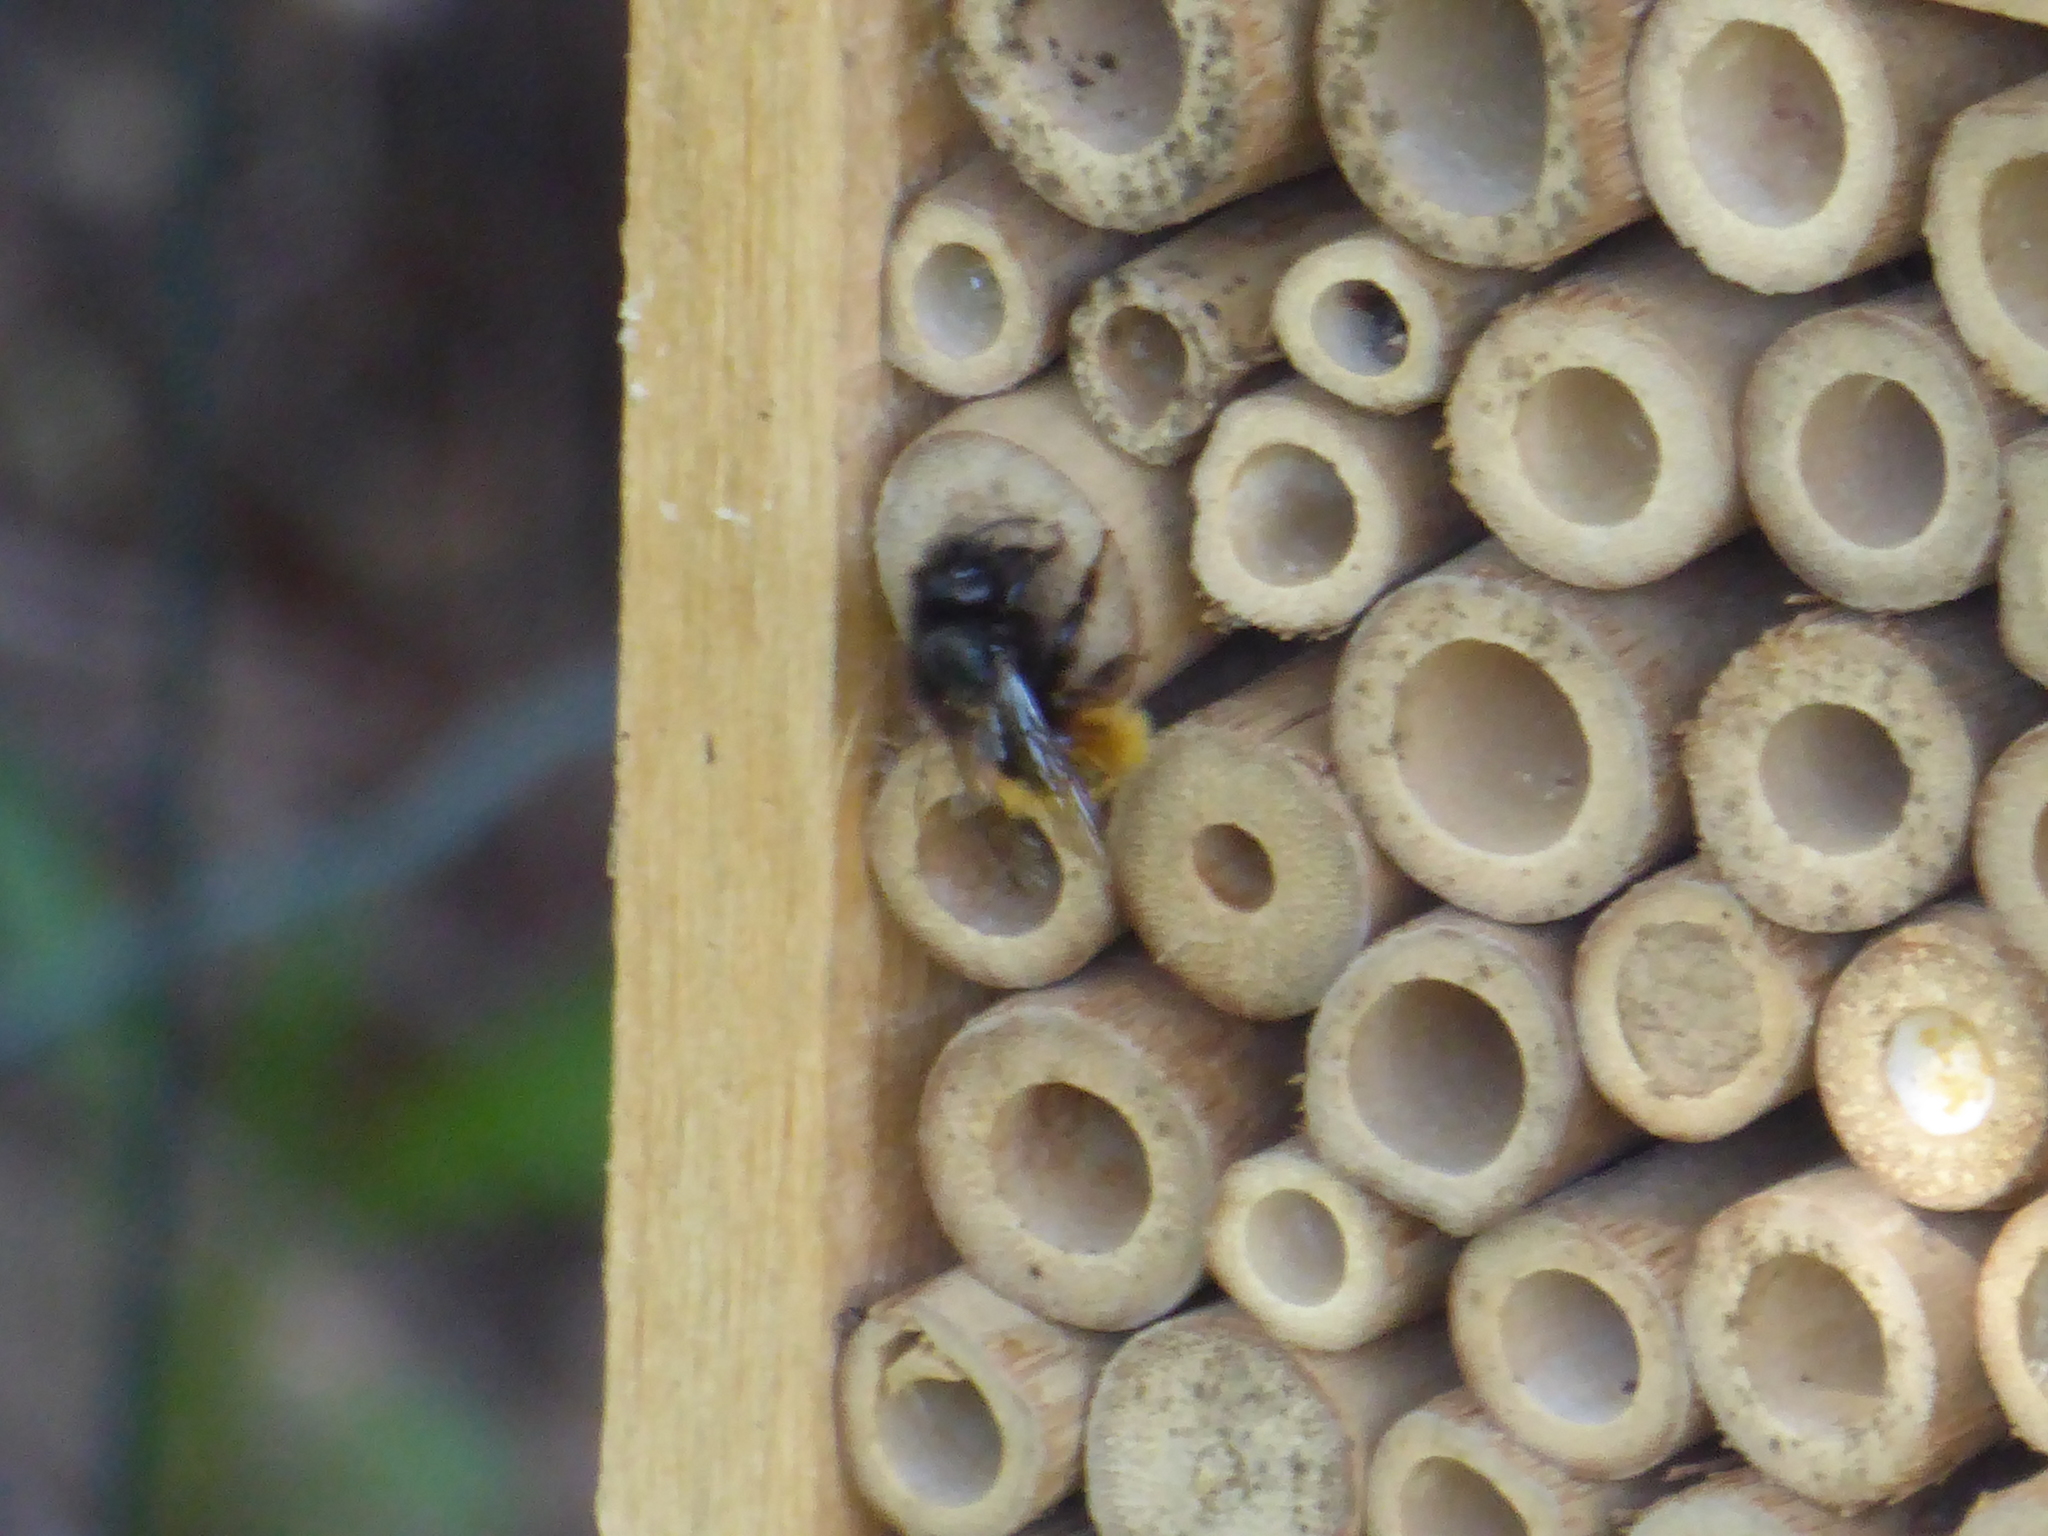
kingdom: Animalia
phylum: Arthropoda
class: Insecta
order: Hymenoptera
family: Megachilidae
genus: Osmia
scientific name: Osmia cornuta
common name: Mason bee
